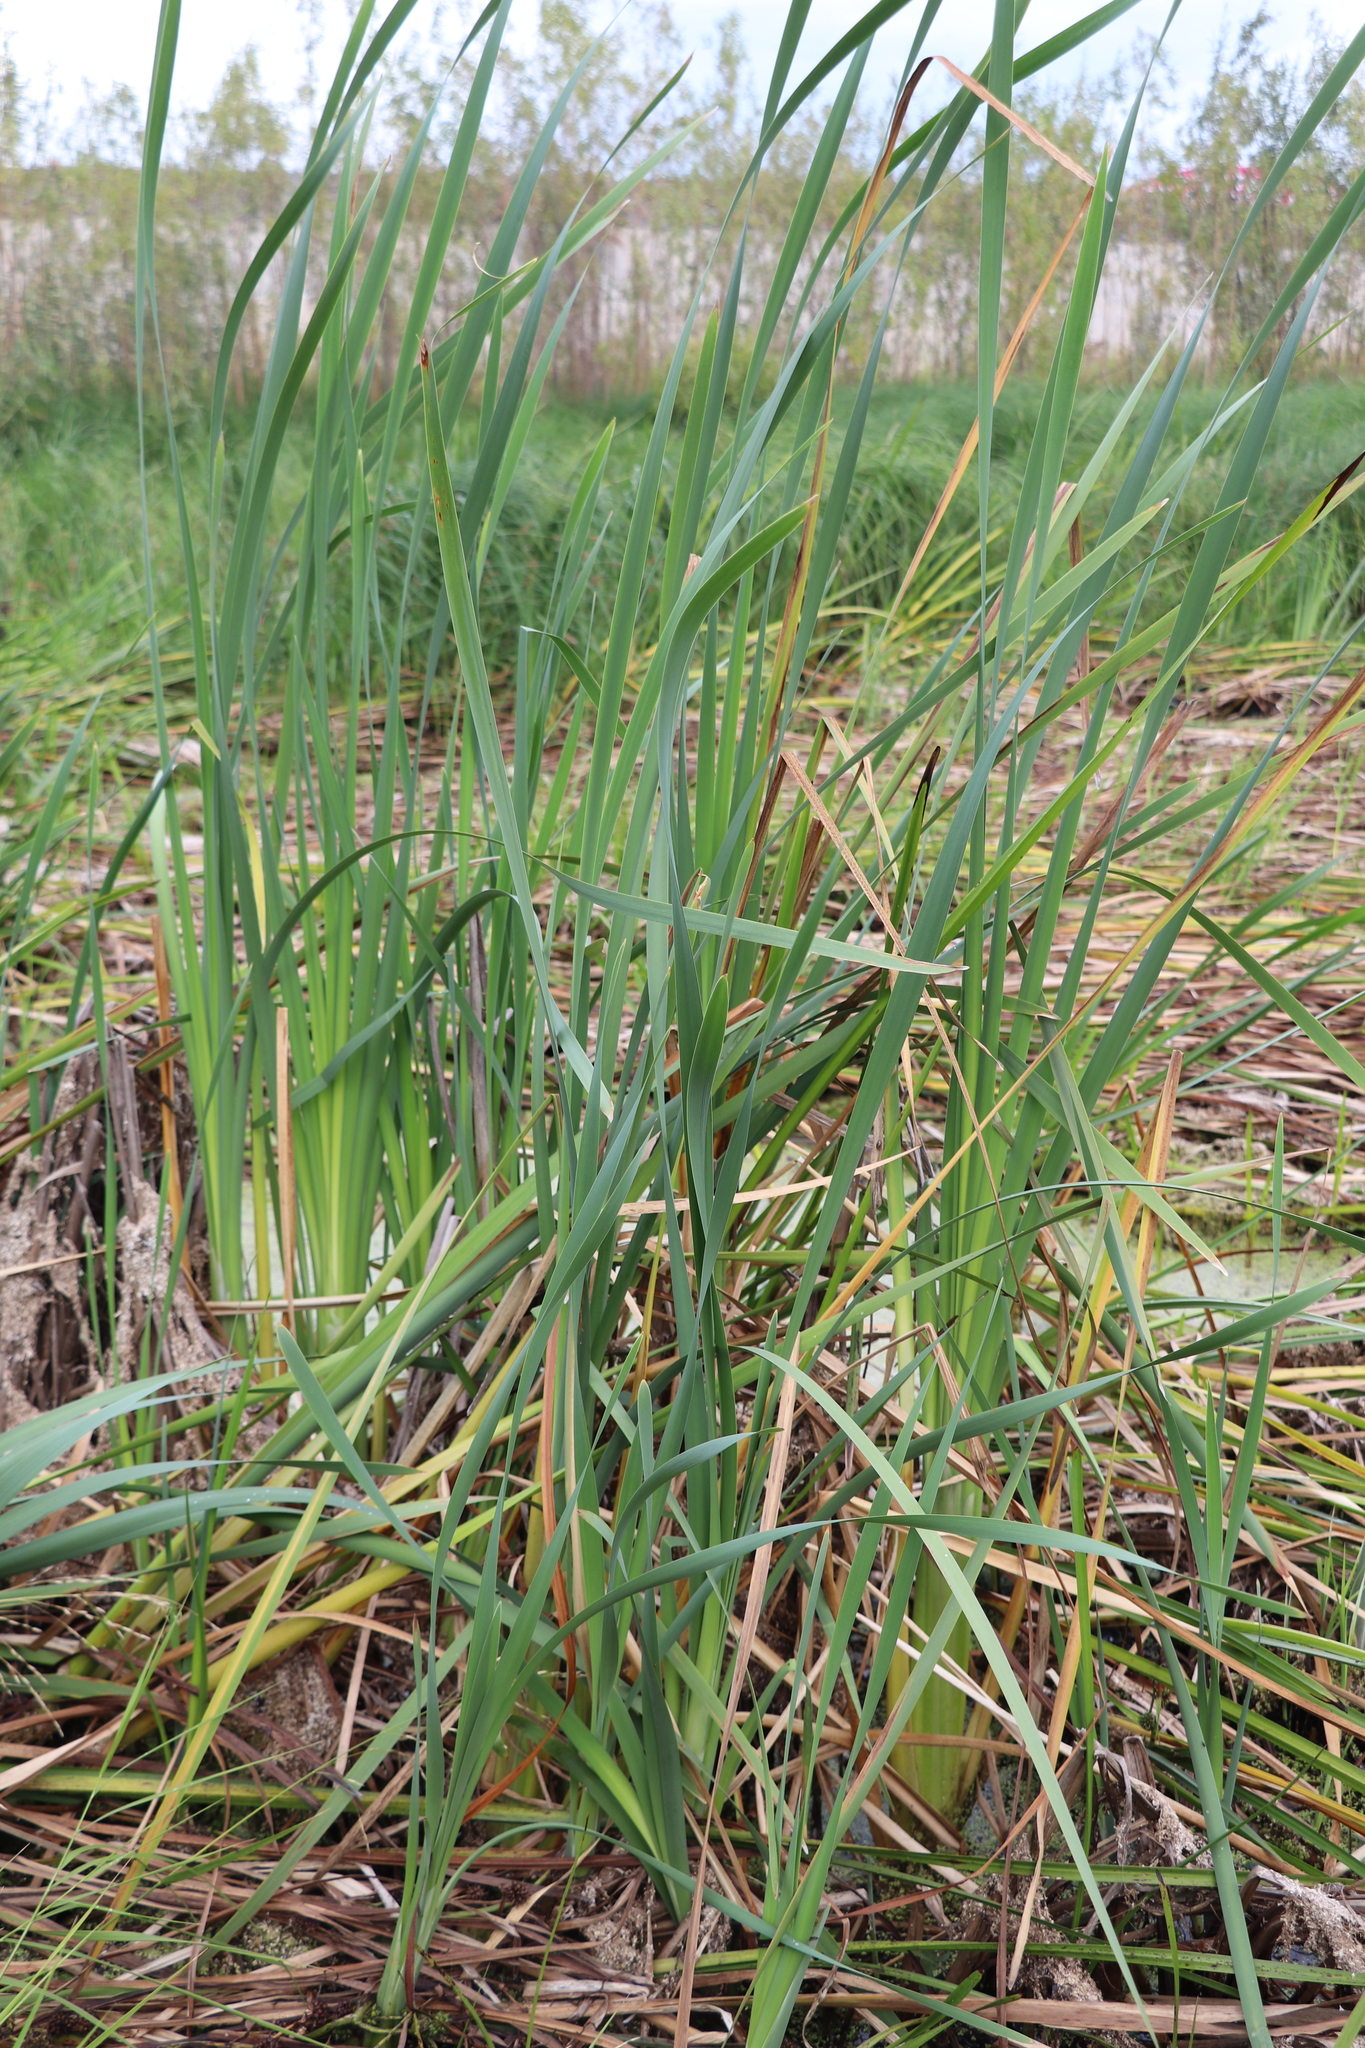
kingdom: Plantae
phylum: Tracheophyta
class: Liliopsida
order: Poales
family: Typhaceae
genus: Typha
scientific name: Typha latifolia
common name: Broadleaf cattail
